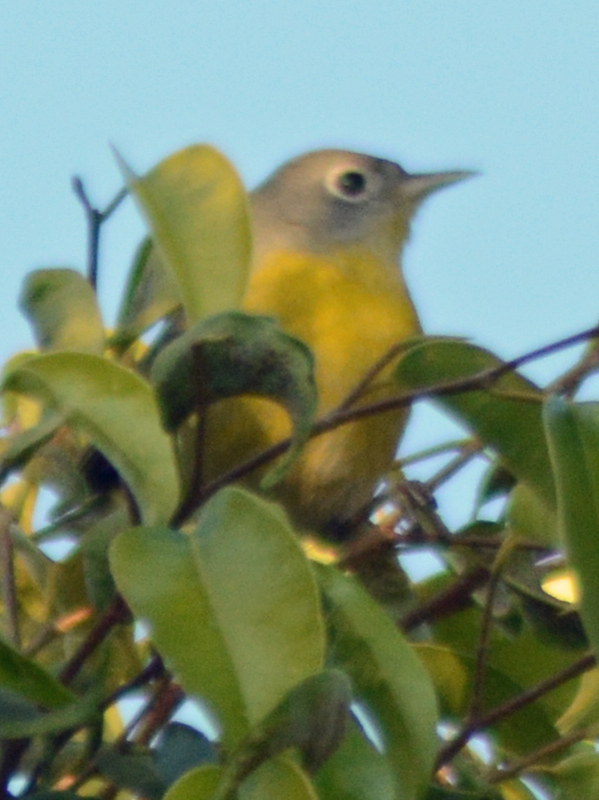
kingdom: Animalia
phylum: Chordata
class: Aves
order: Passeriformes
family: Parulidae
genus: Leiothlypis
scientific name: Leiothlypis ruficapilla
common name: Nashville warbler
